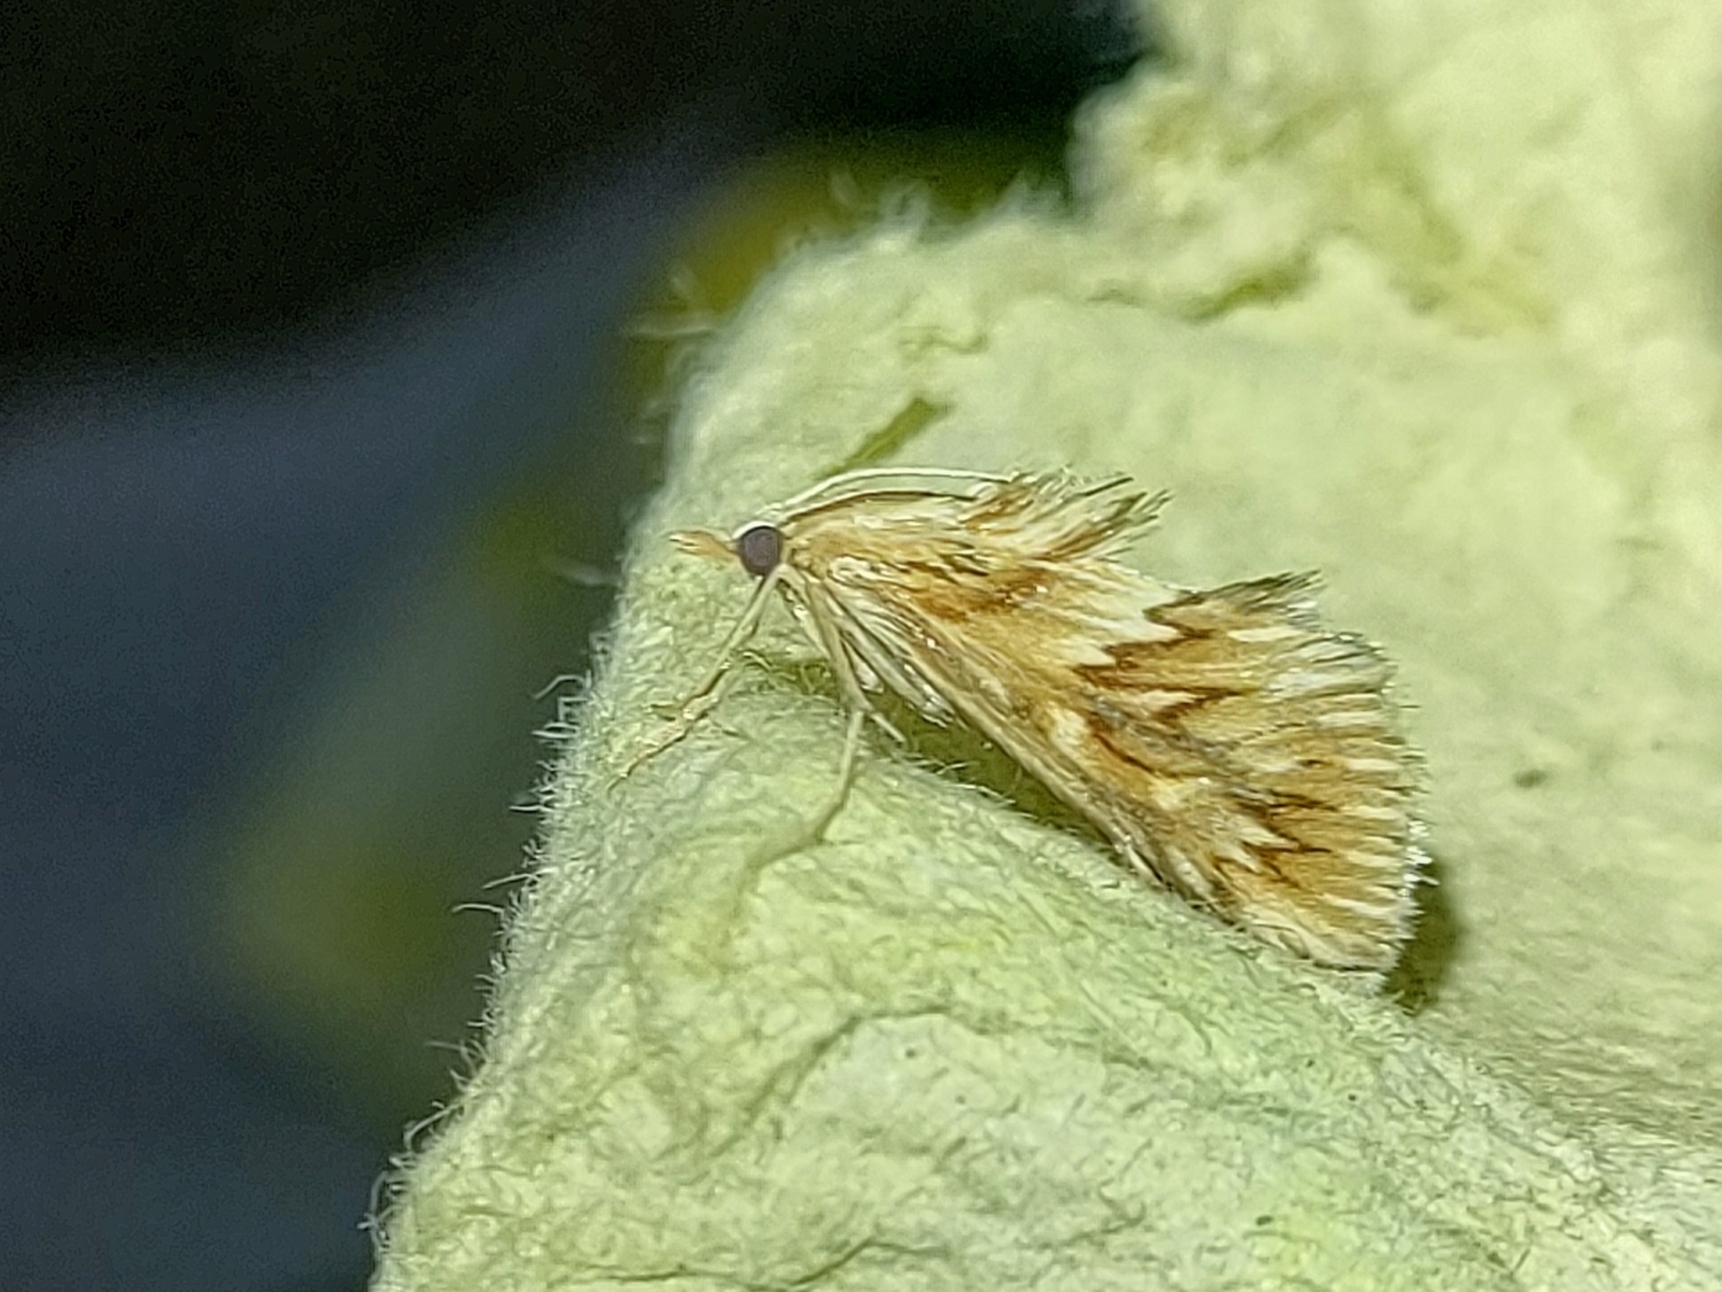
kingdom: Animalia
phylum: Arthropoda
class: Insecta
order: Lepidoptera
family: Crambidae
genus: Cynaeda
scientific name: Cynaeda dentalis
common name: Starry pearl
